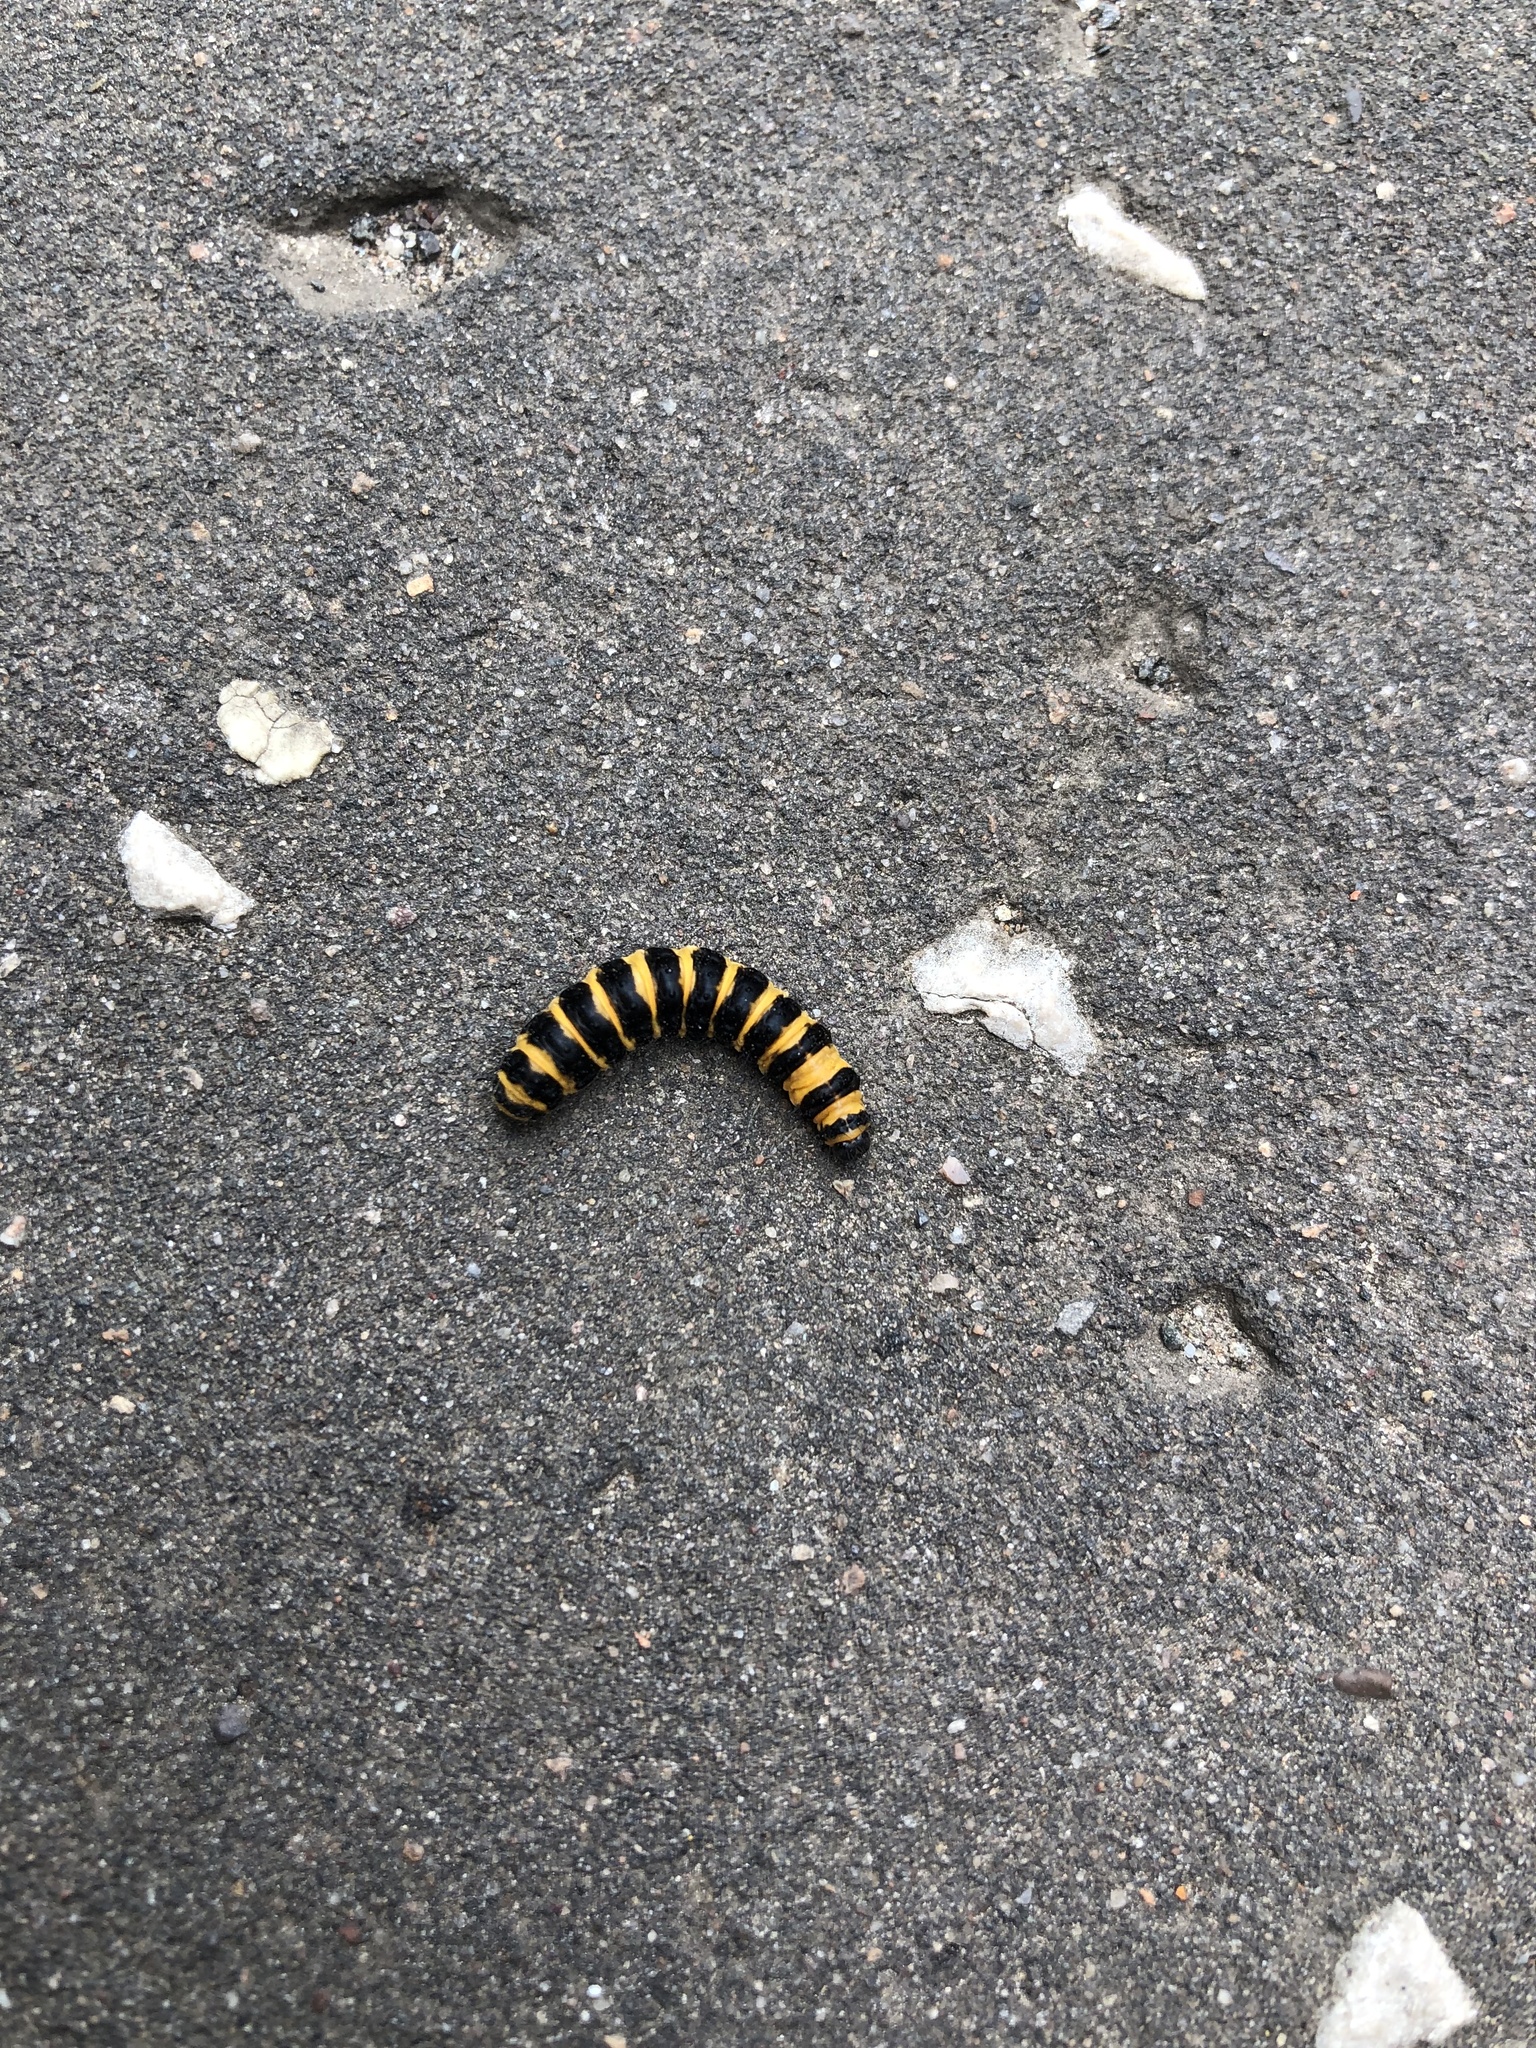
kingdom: Animalia
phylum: Arthropoda
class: Insecta
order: Lepidoptera
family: Erebidae
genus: Tyria
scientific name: Tyria jacobaeae
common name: Cinnabar
